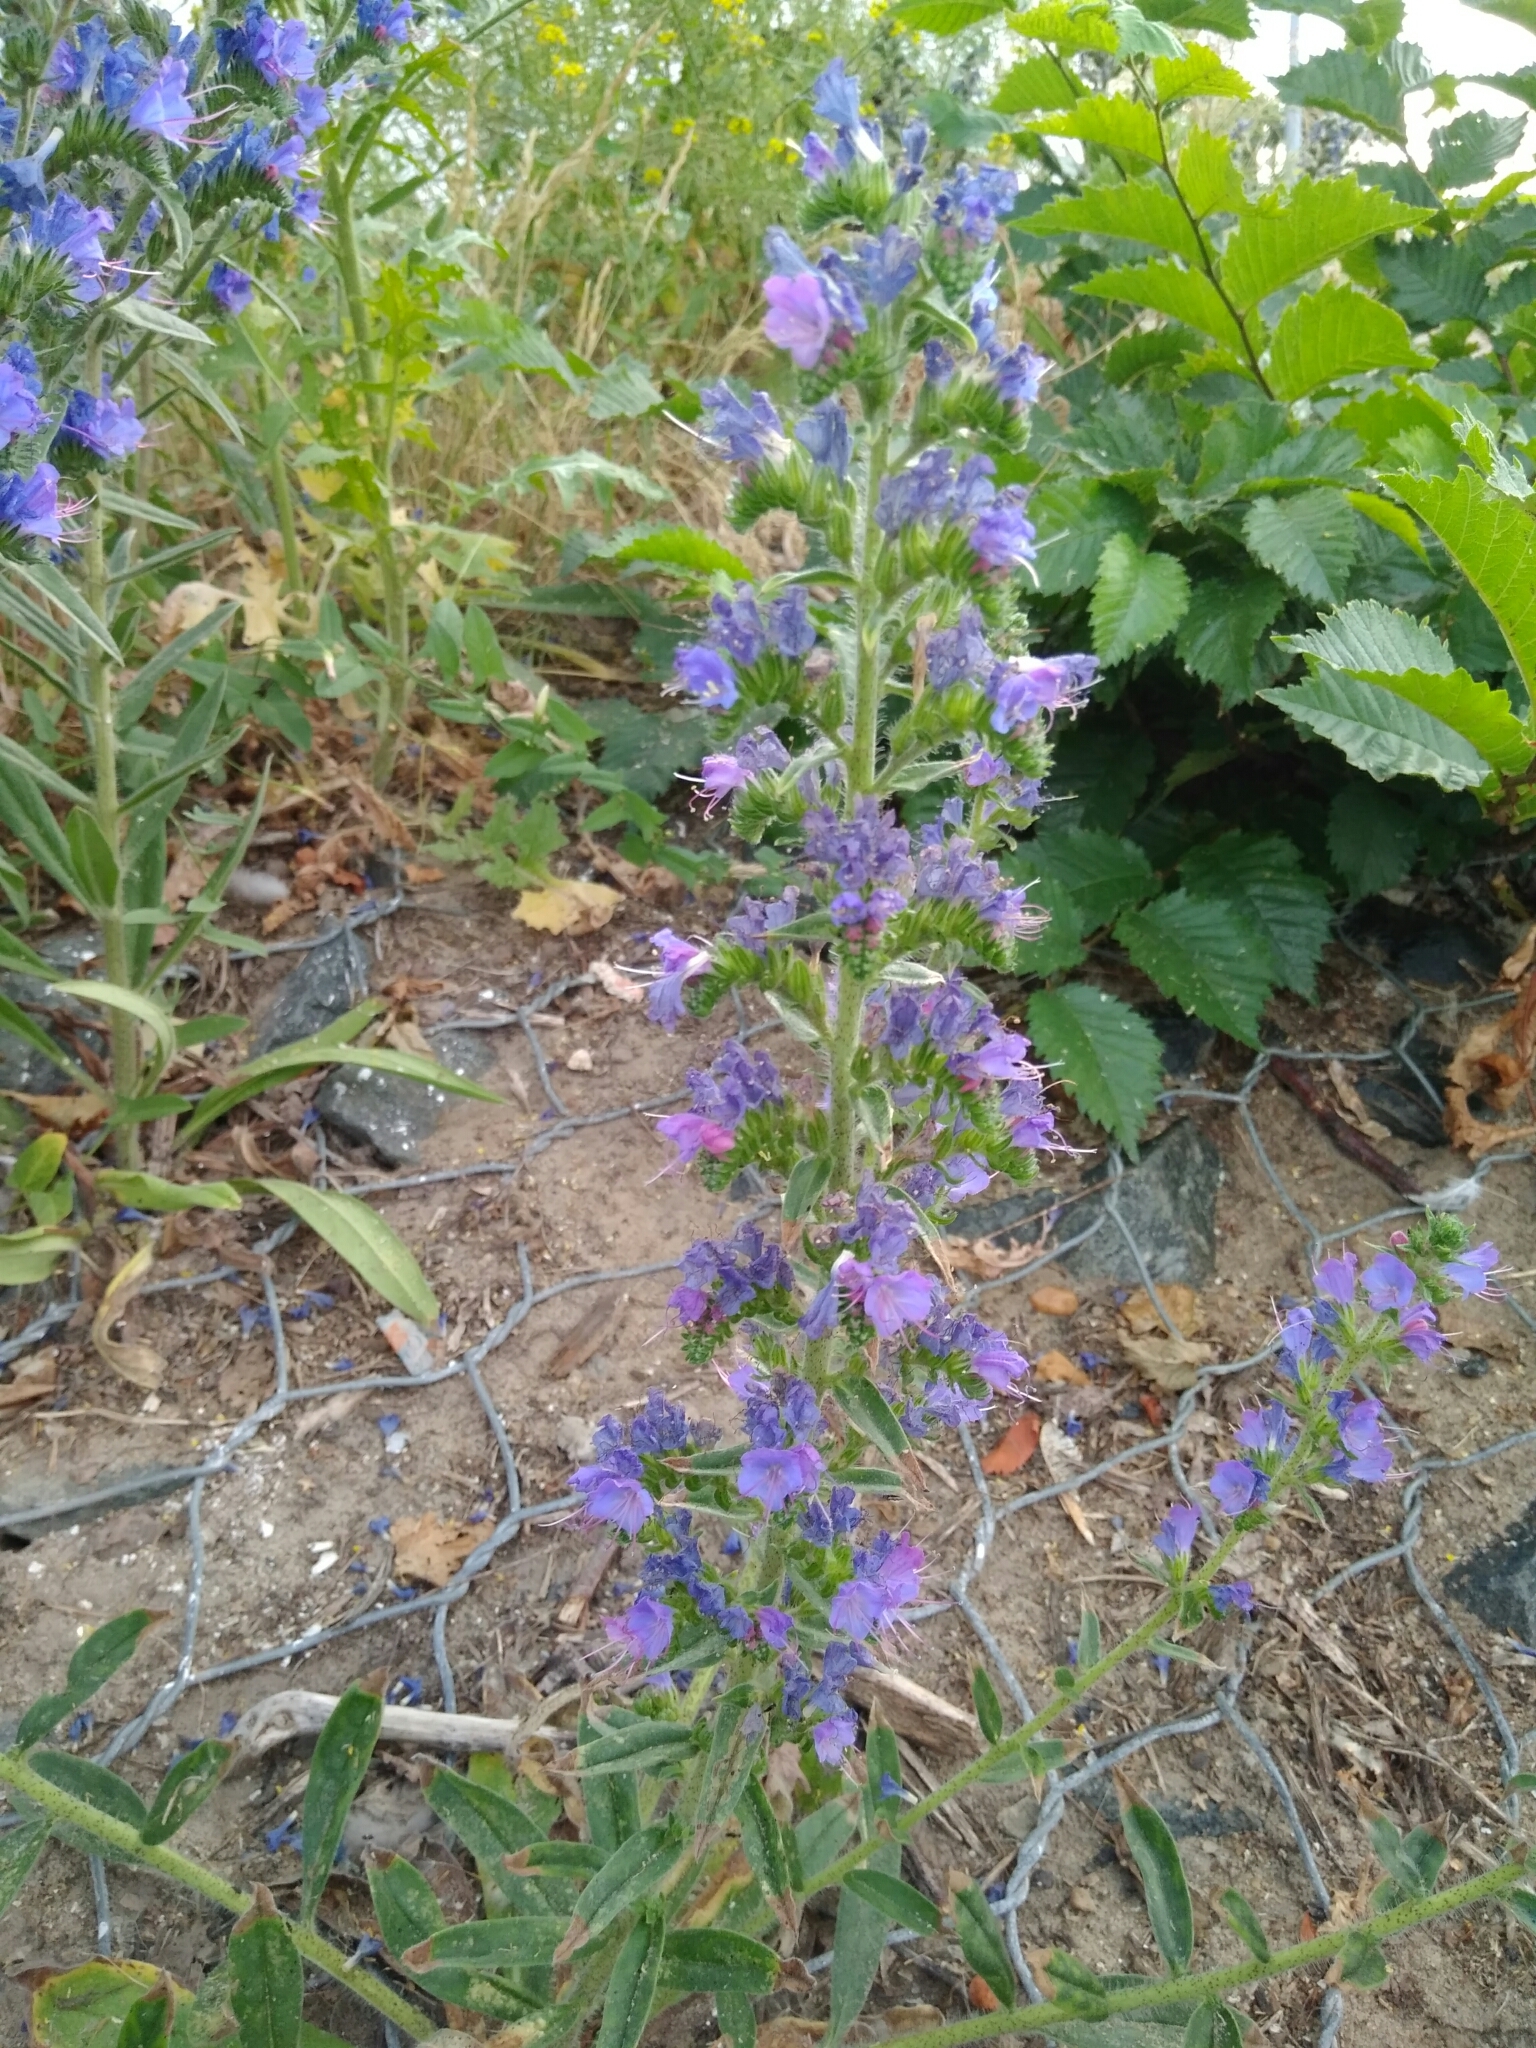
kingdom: Plantae
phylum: Tracheophyta
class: Magnoliopsida
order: Boraginales
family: Boraginaceae
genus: Echium
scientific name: Echium vulgare
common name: Common viper's bugloss
